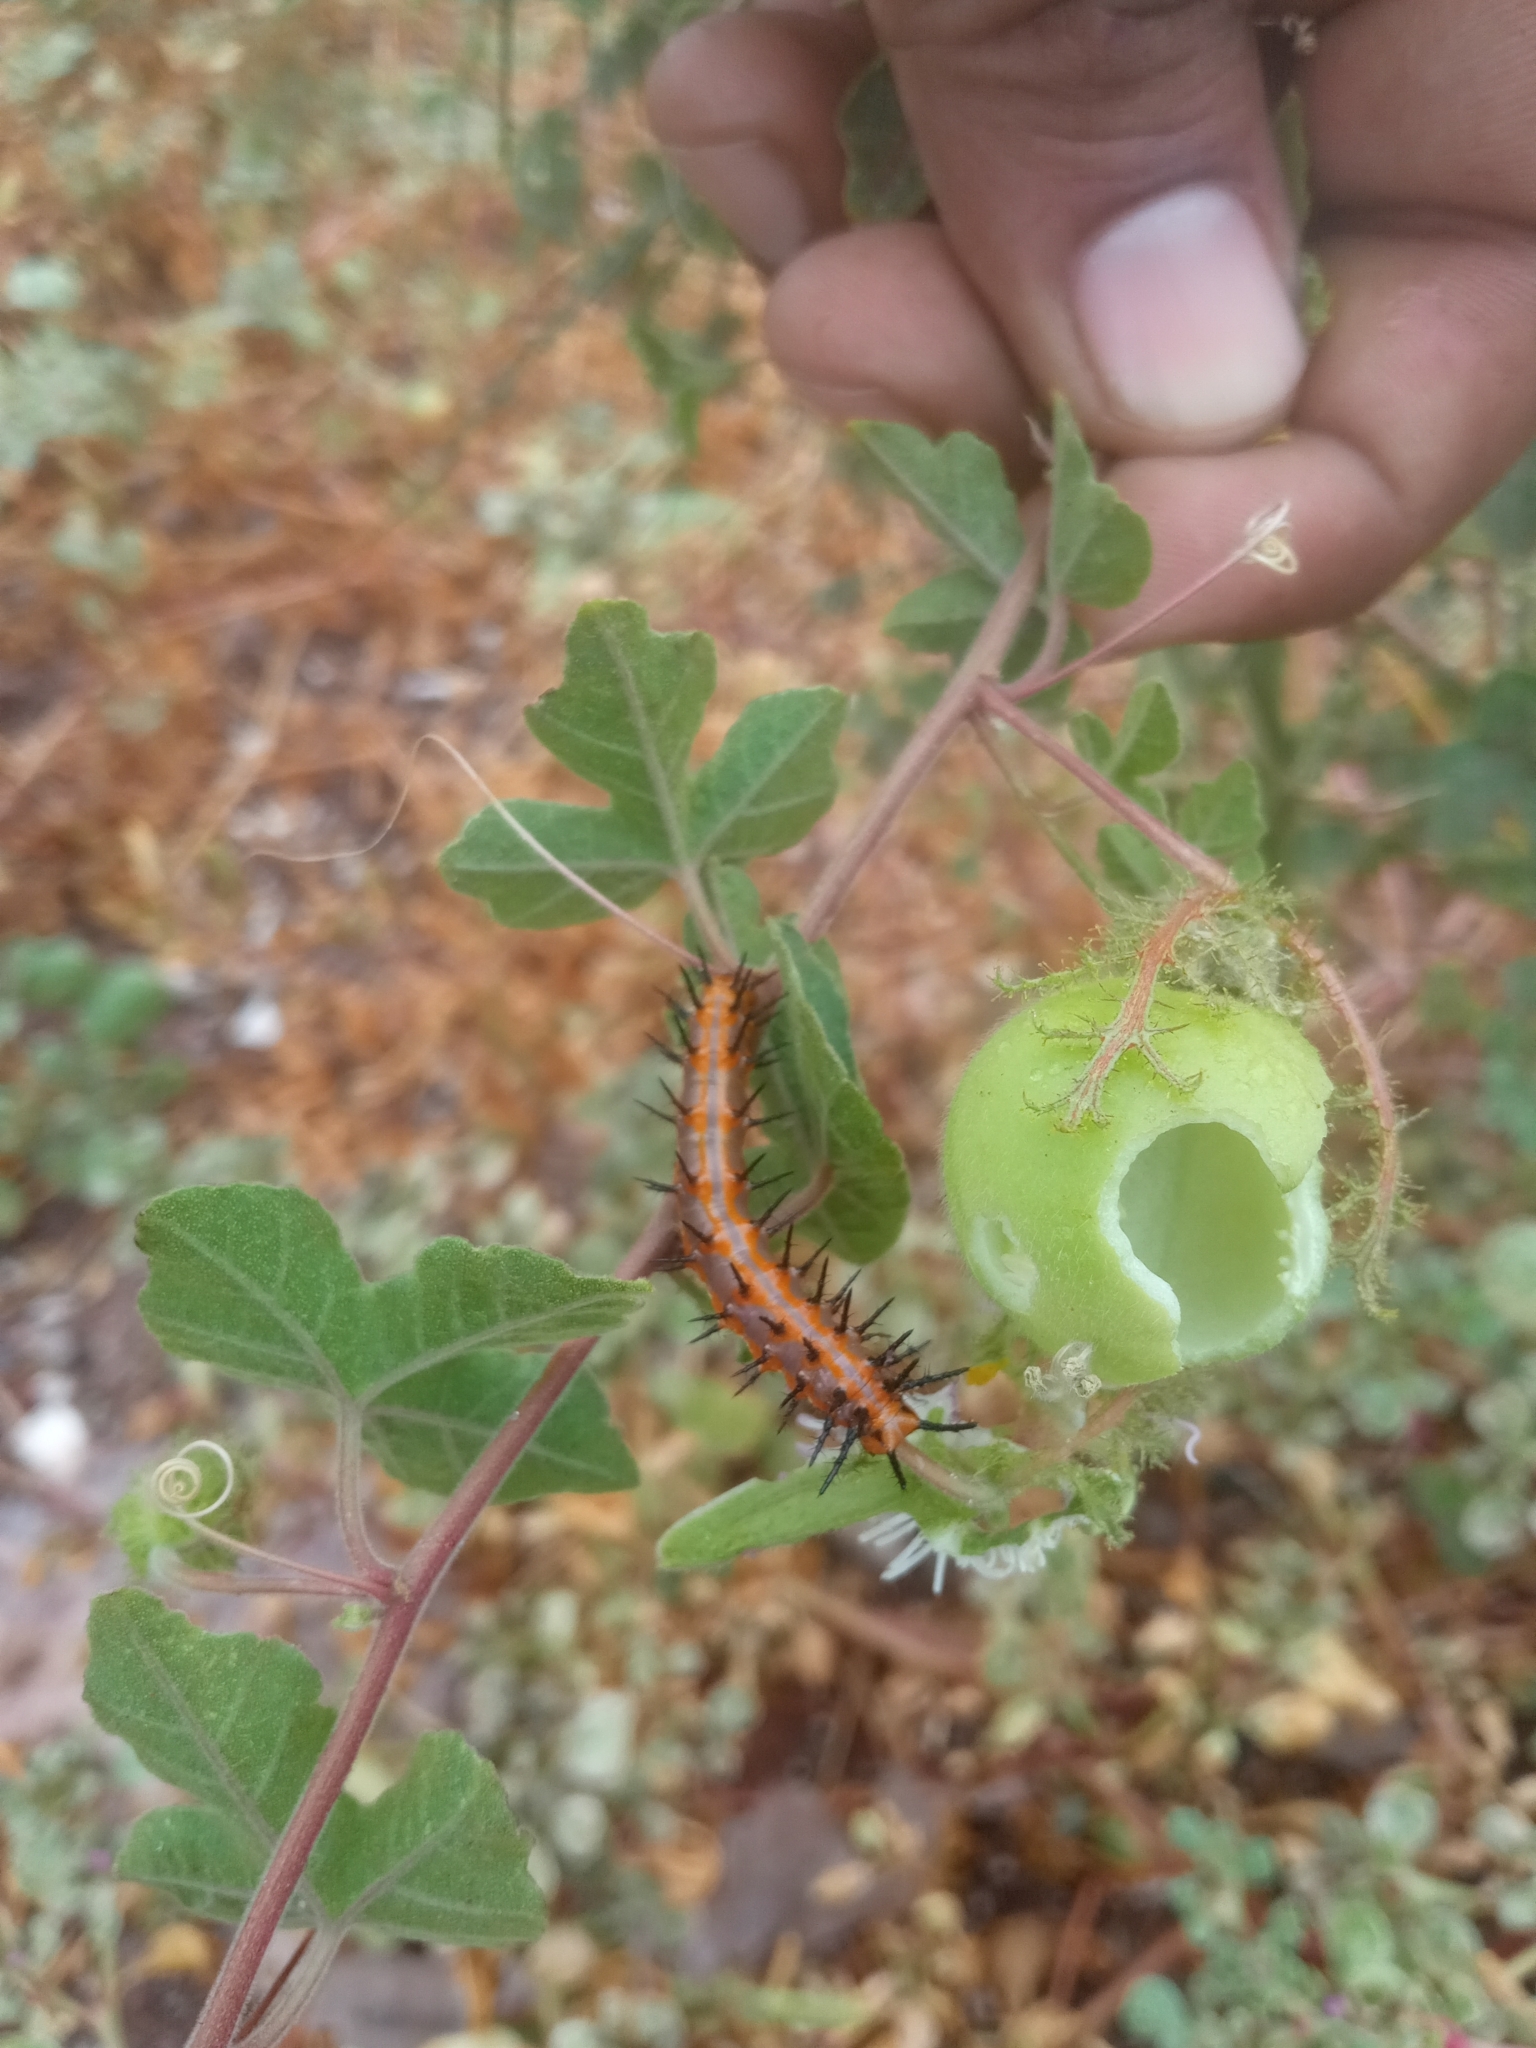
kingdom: Animalia
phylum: Arthropoda
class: Insecta
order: Lepidoptera
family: Nymphalidae
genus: Dione
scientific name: Dione vanillae
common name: Gulf fritillary
